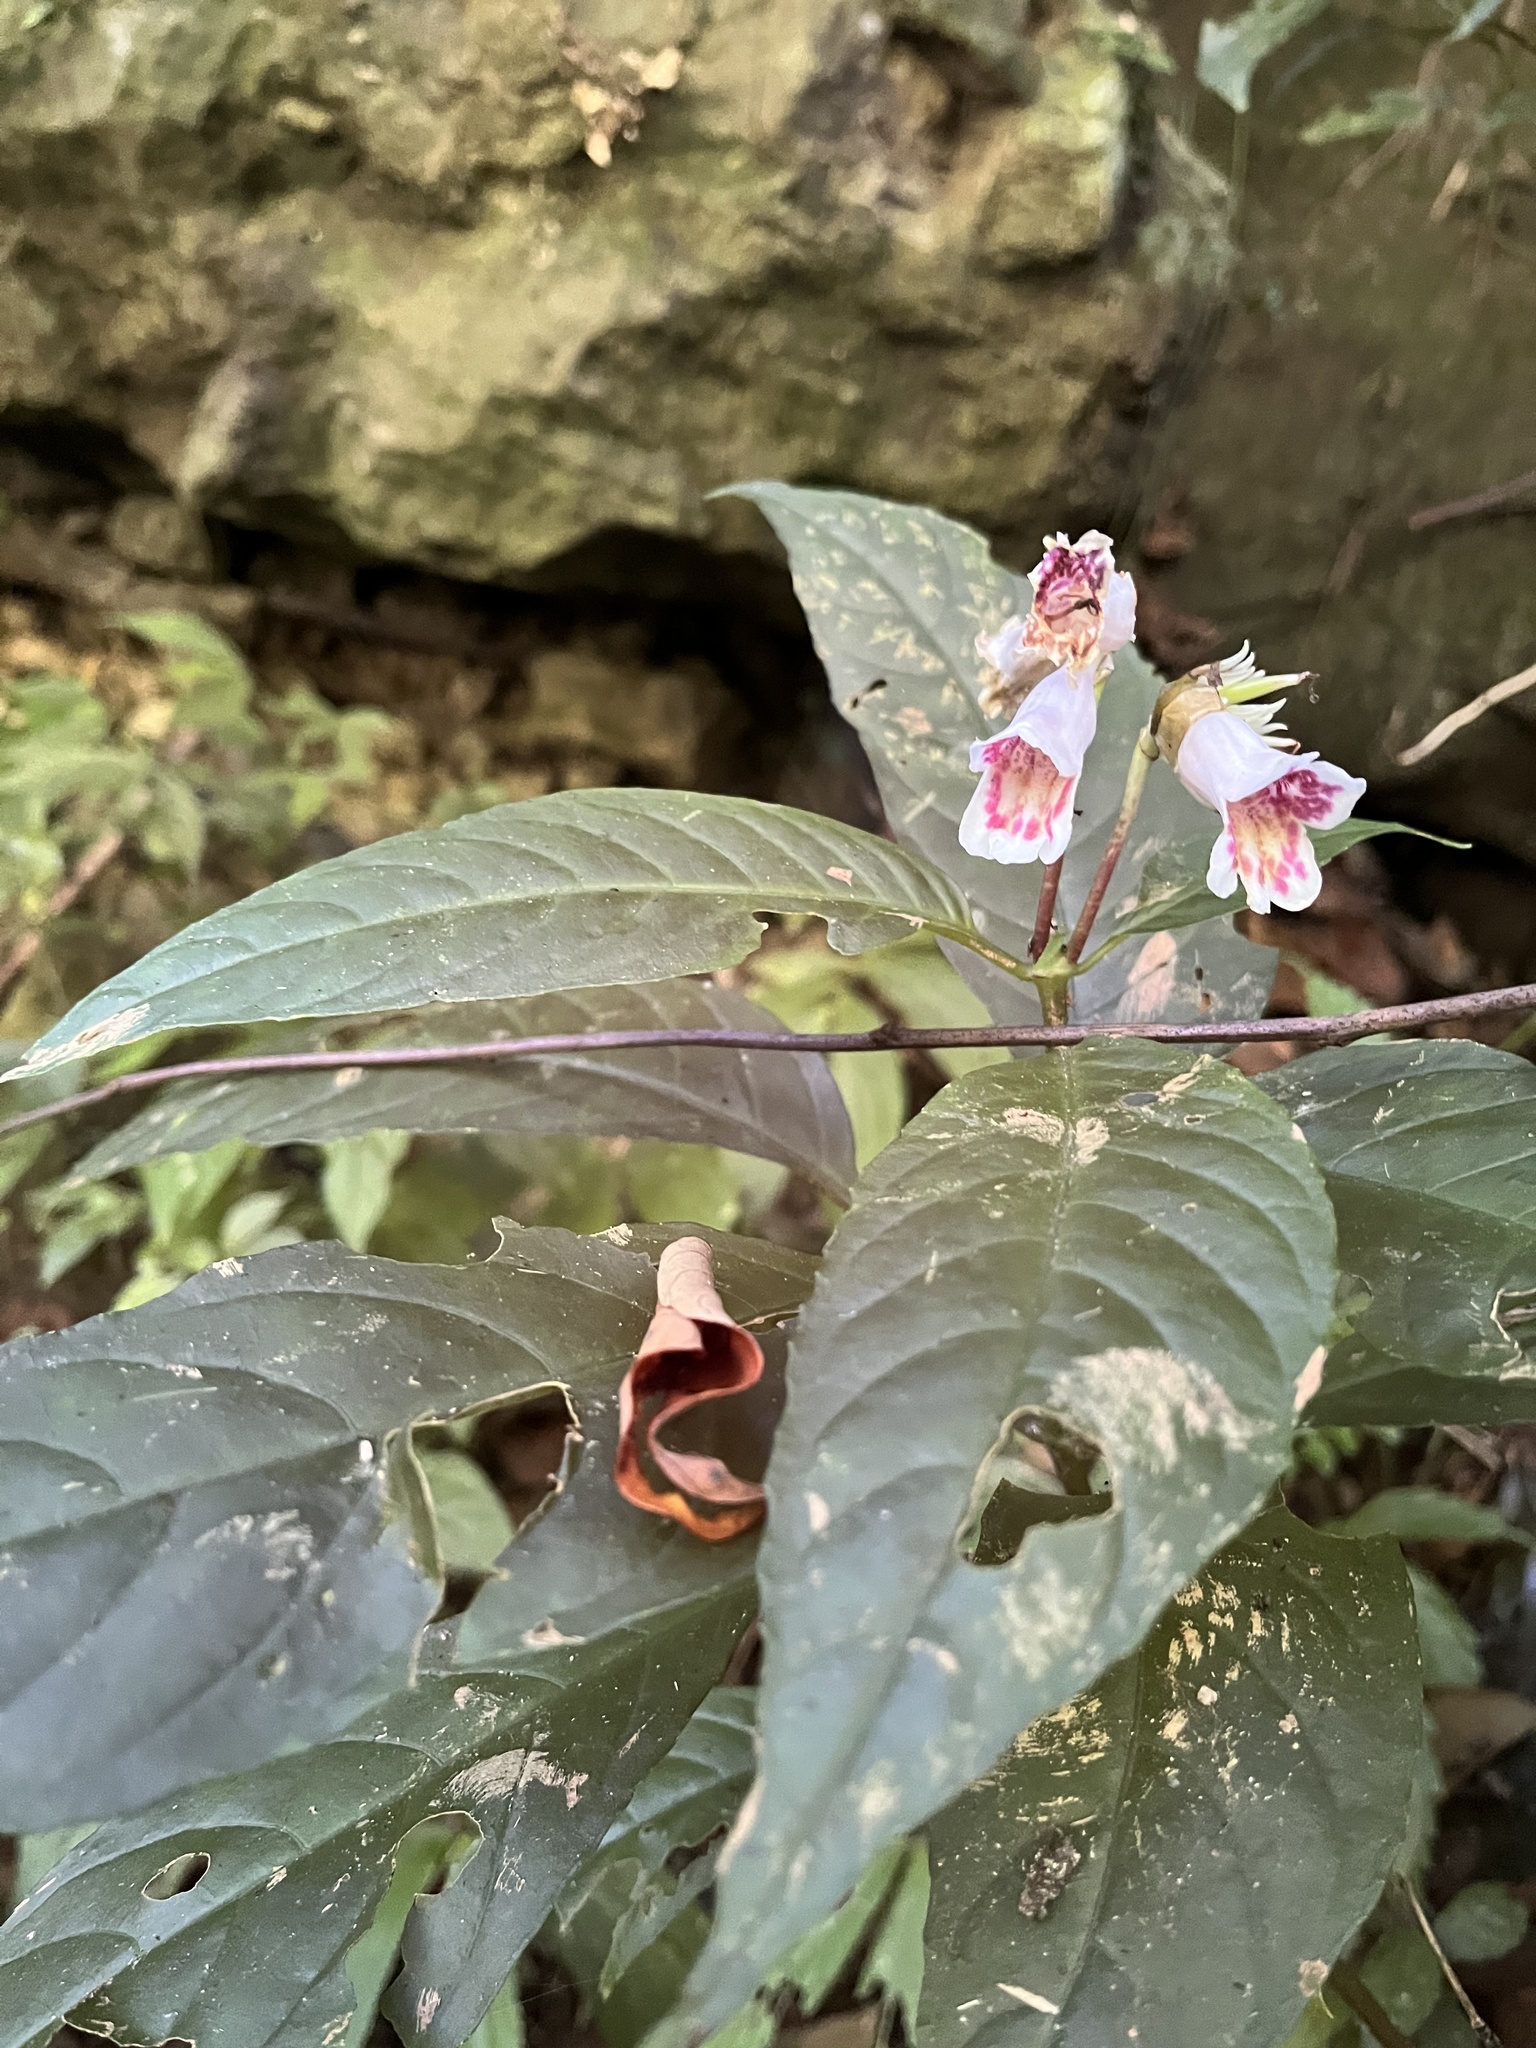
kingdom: Plantae
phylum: Tracheophyta
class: Magnoliopsida
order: Lamiales
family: Gesneriaceae
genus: Hemiboea
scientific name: Hemiboea bicornuta
